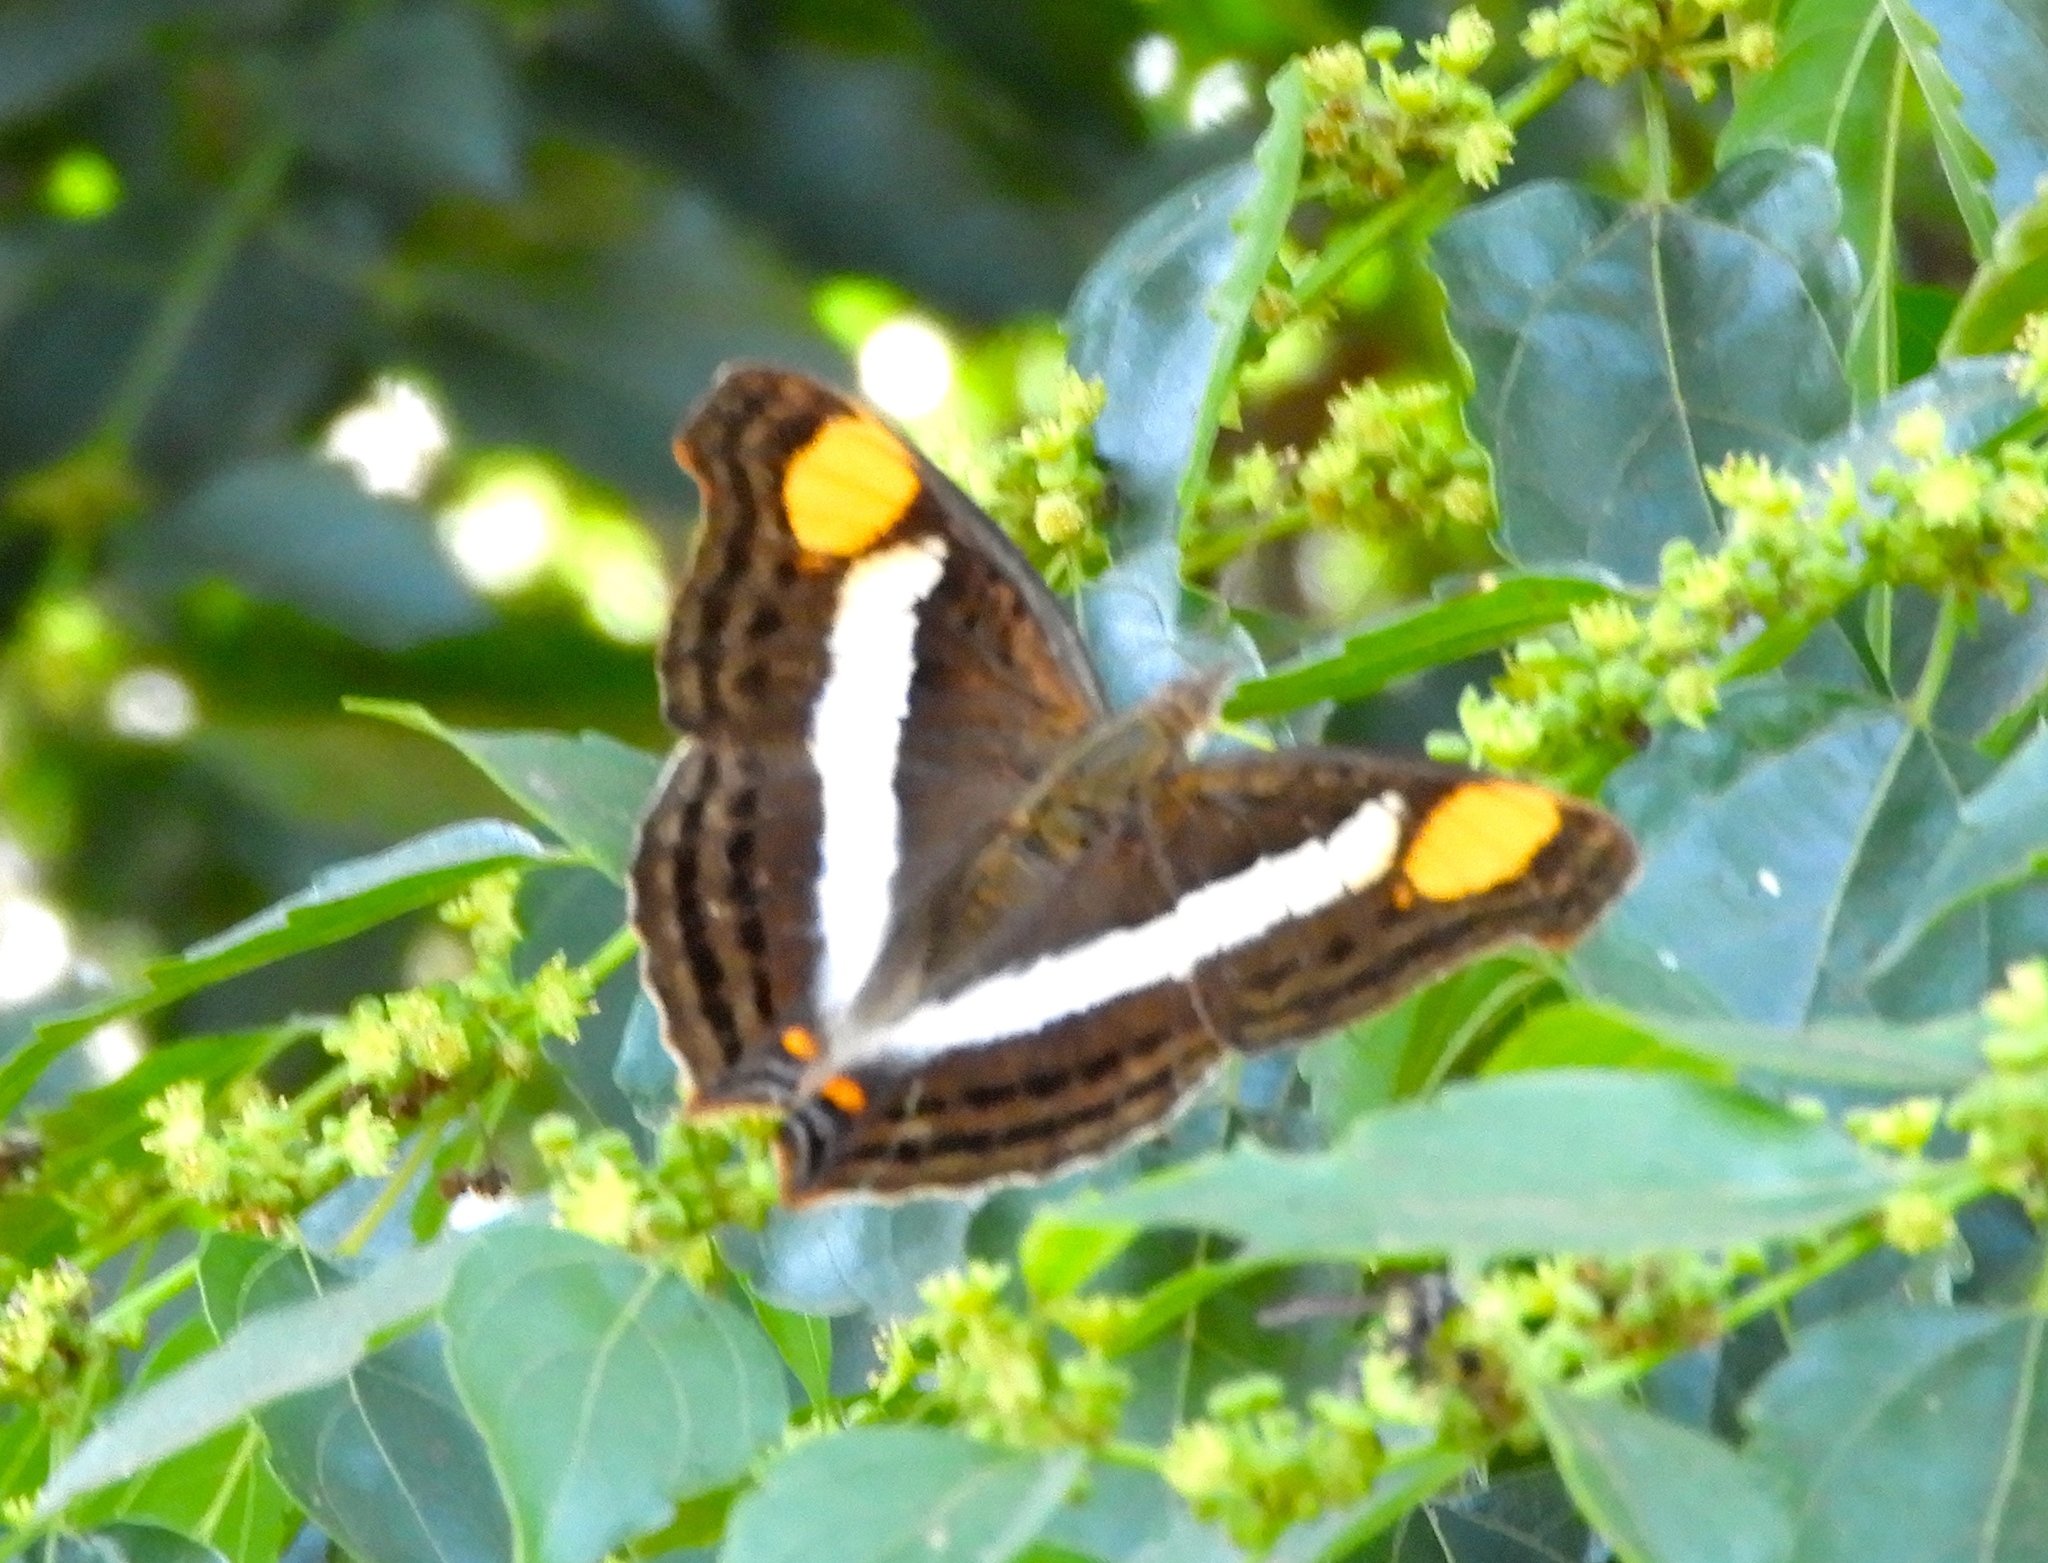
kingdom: Animalia
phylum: Arthropoda
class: Insecta
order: Lepidoptera
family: Nymphalidae
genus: Doxocopa
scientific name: Doxocopa laure
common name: Silver emperor
